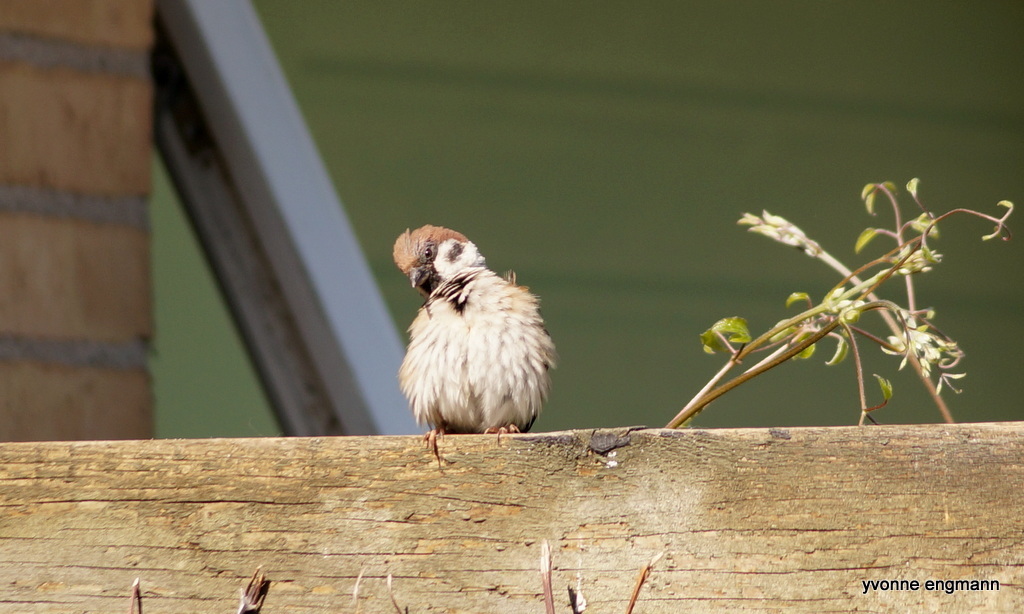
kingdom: Animalia
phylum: Chordata
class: Aves
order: Passeriformes
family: Passeridae
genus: Passer
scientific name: Passer montanus
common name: Eurasian tree sparrow
